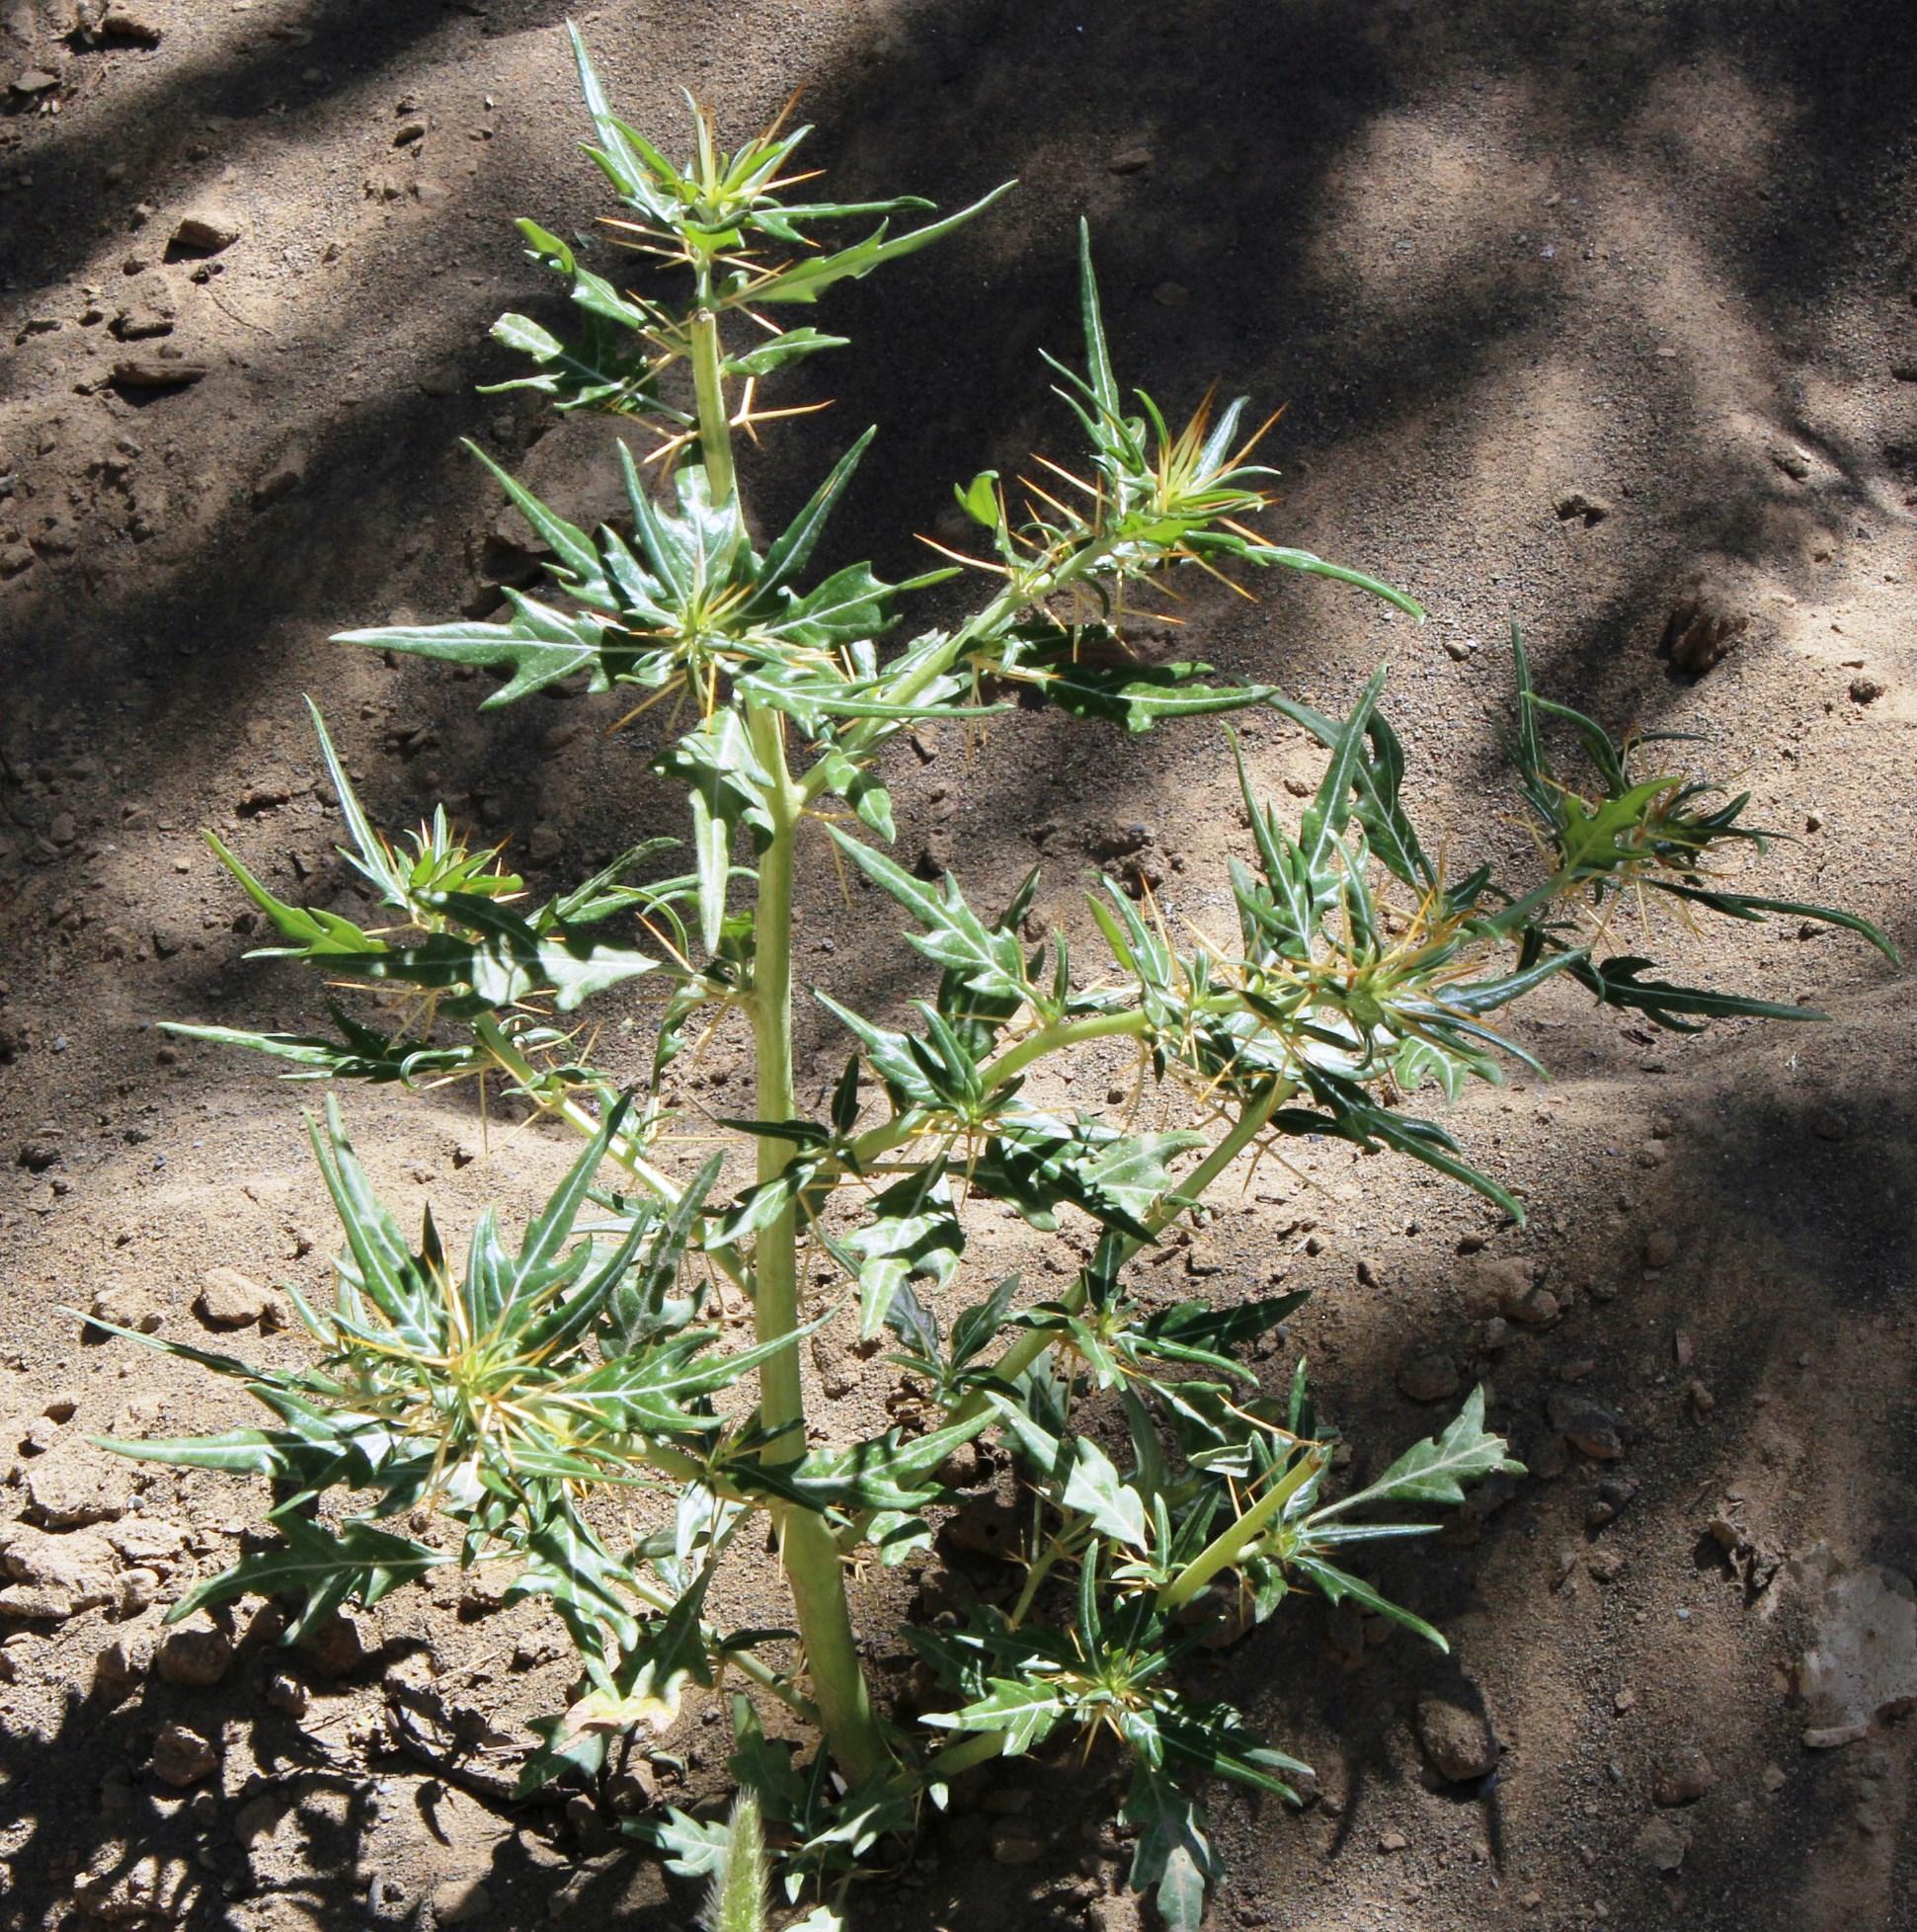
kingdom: Plantae
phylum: Tracheophyta
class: Magnoliopsida
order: Asterales
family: Asteraceae
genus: Xanthium
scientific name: Xanthium spinosum
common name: Spiny cocklebur
